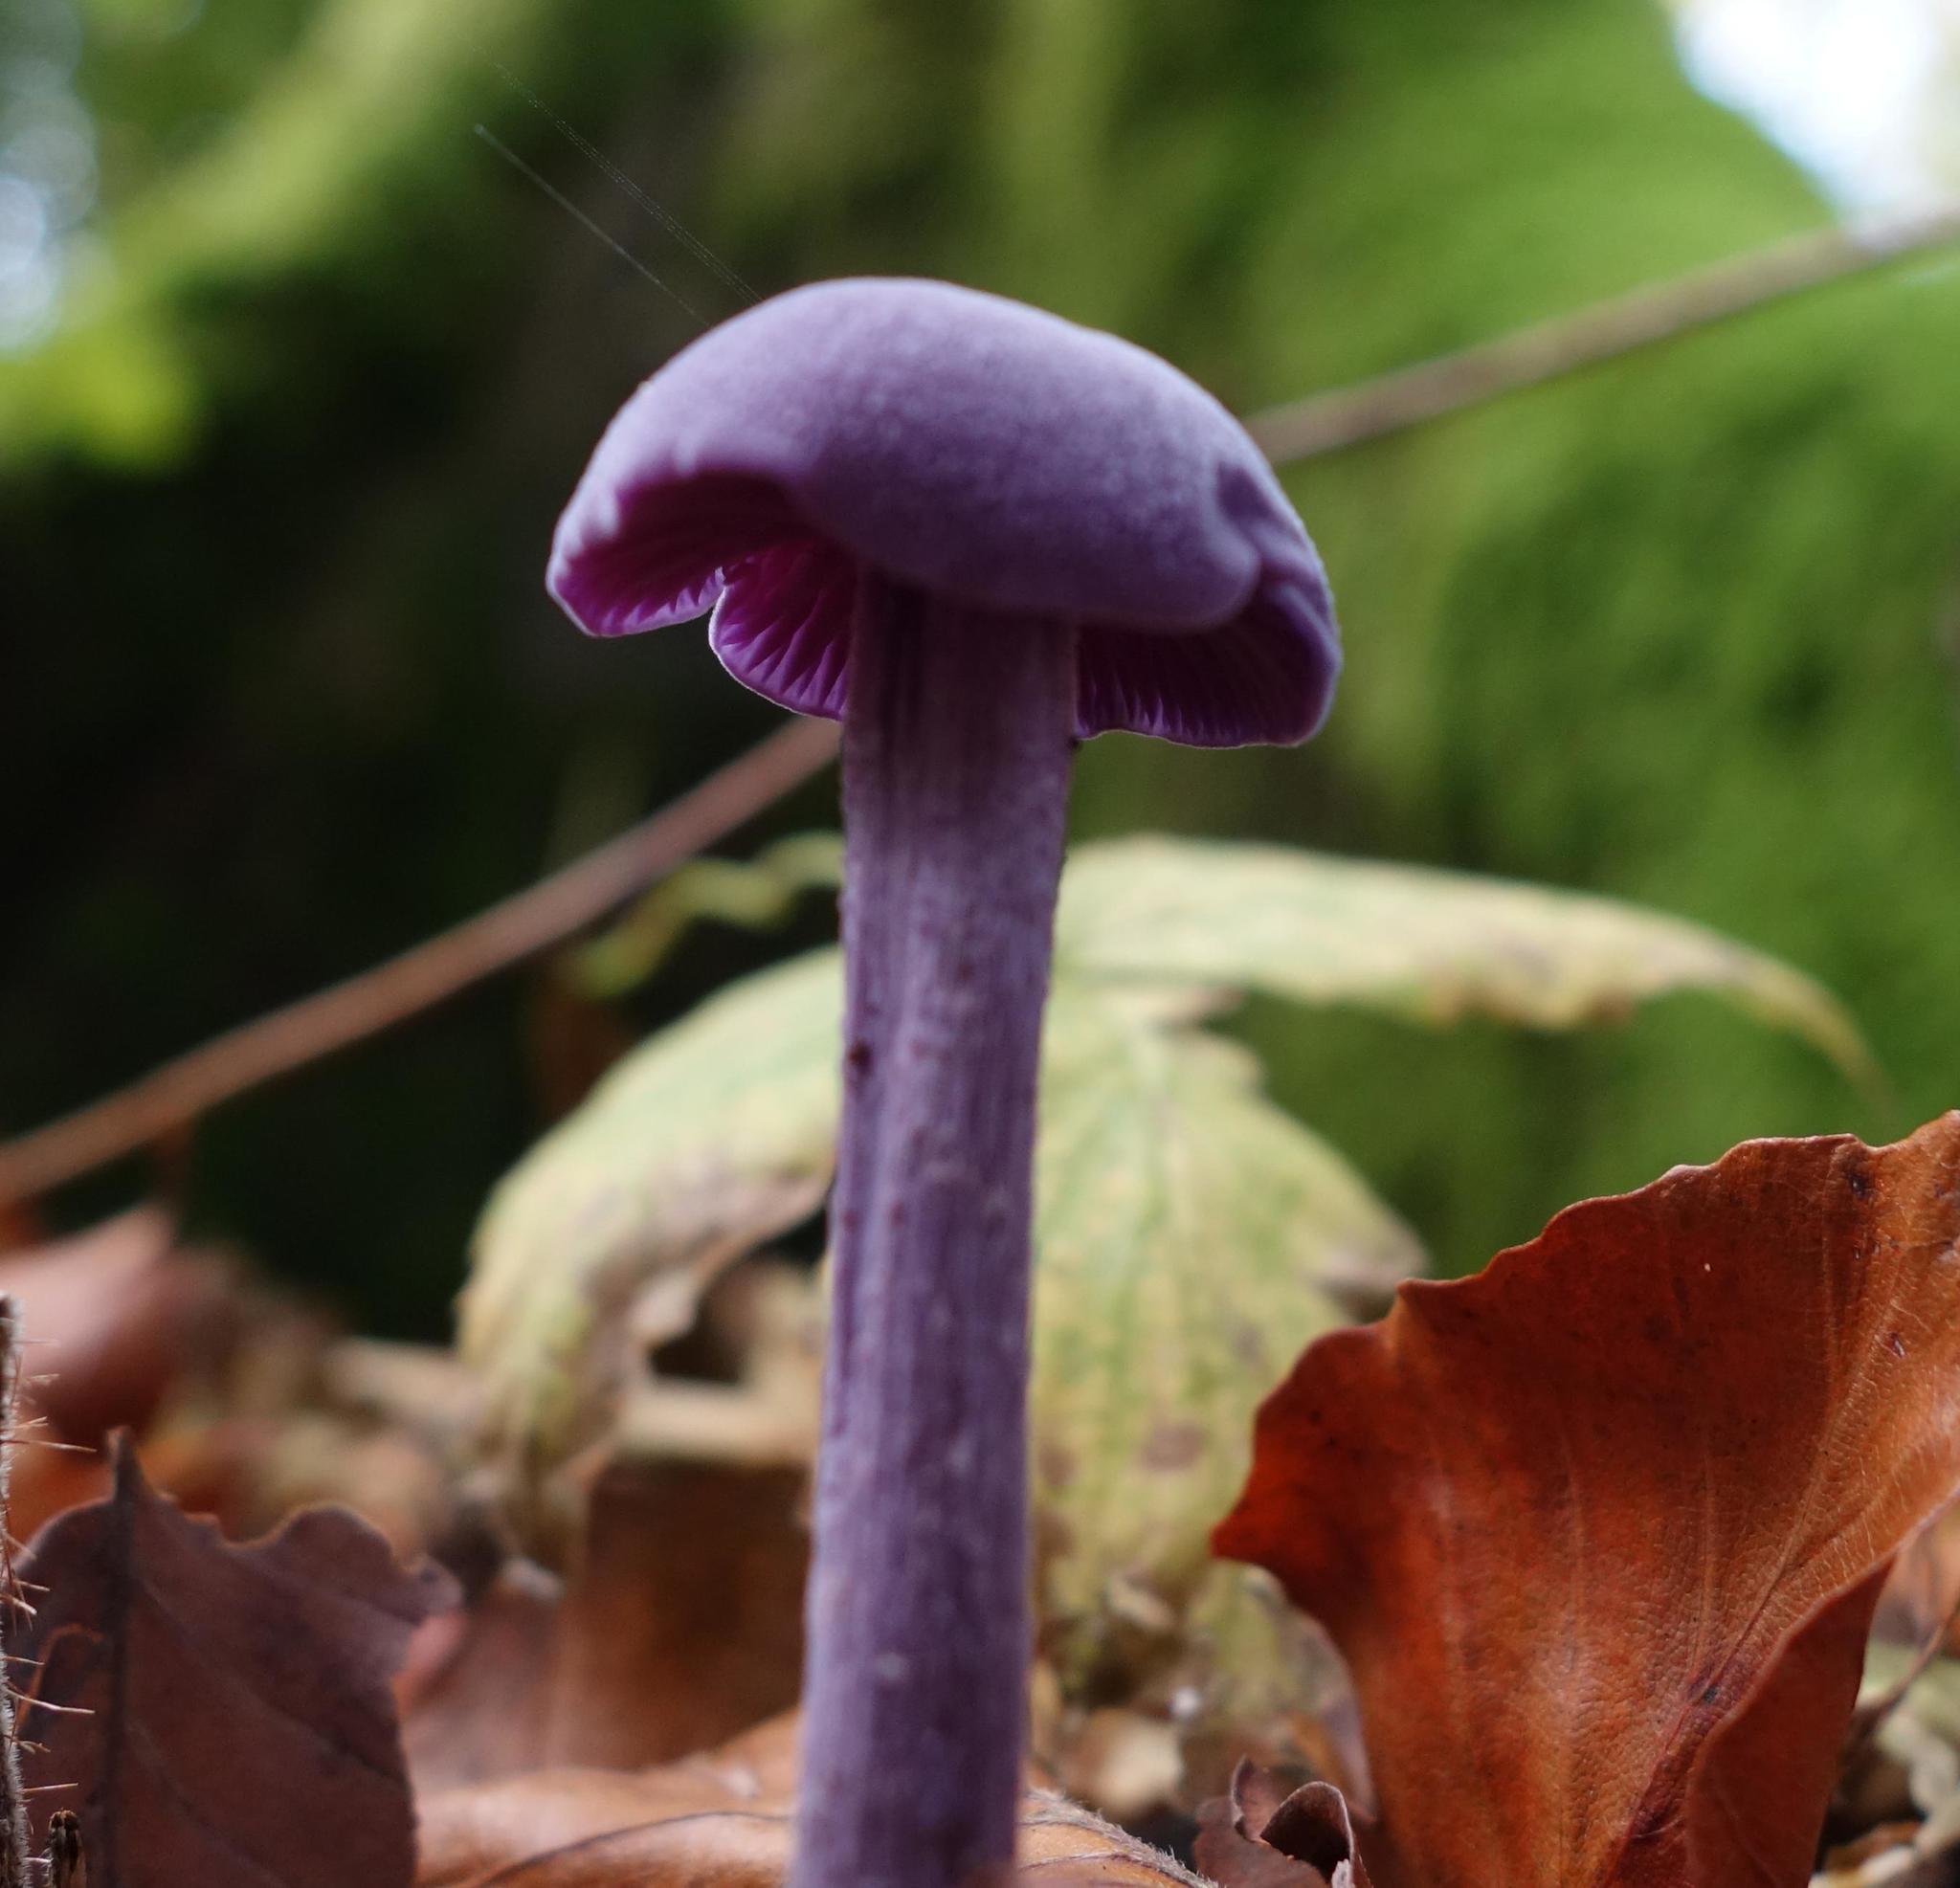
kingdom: Fungi
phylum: Basidiomycota
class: Agaricomycetes
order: Agaricales
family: Hydnangiaceae
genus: Laccaria
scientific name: Laccaria amethystina
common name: Amethyst deceiver
